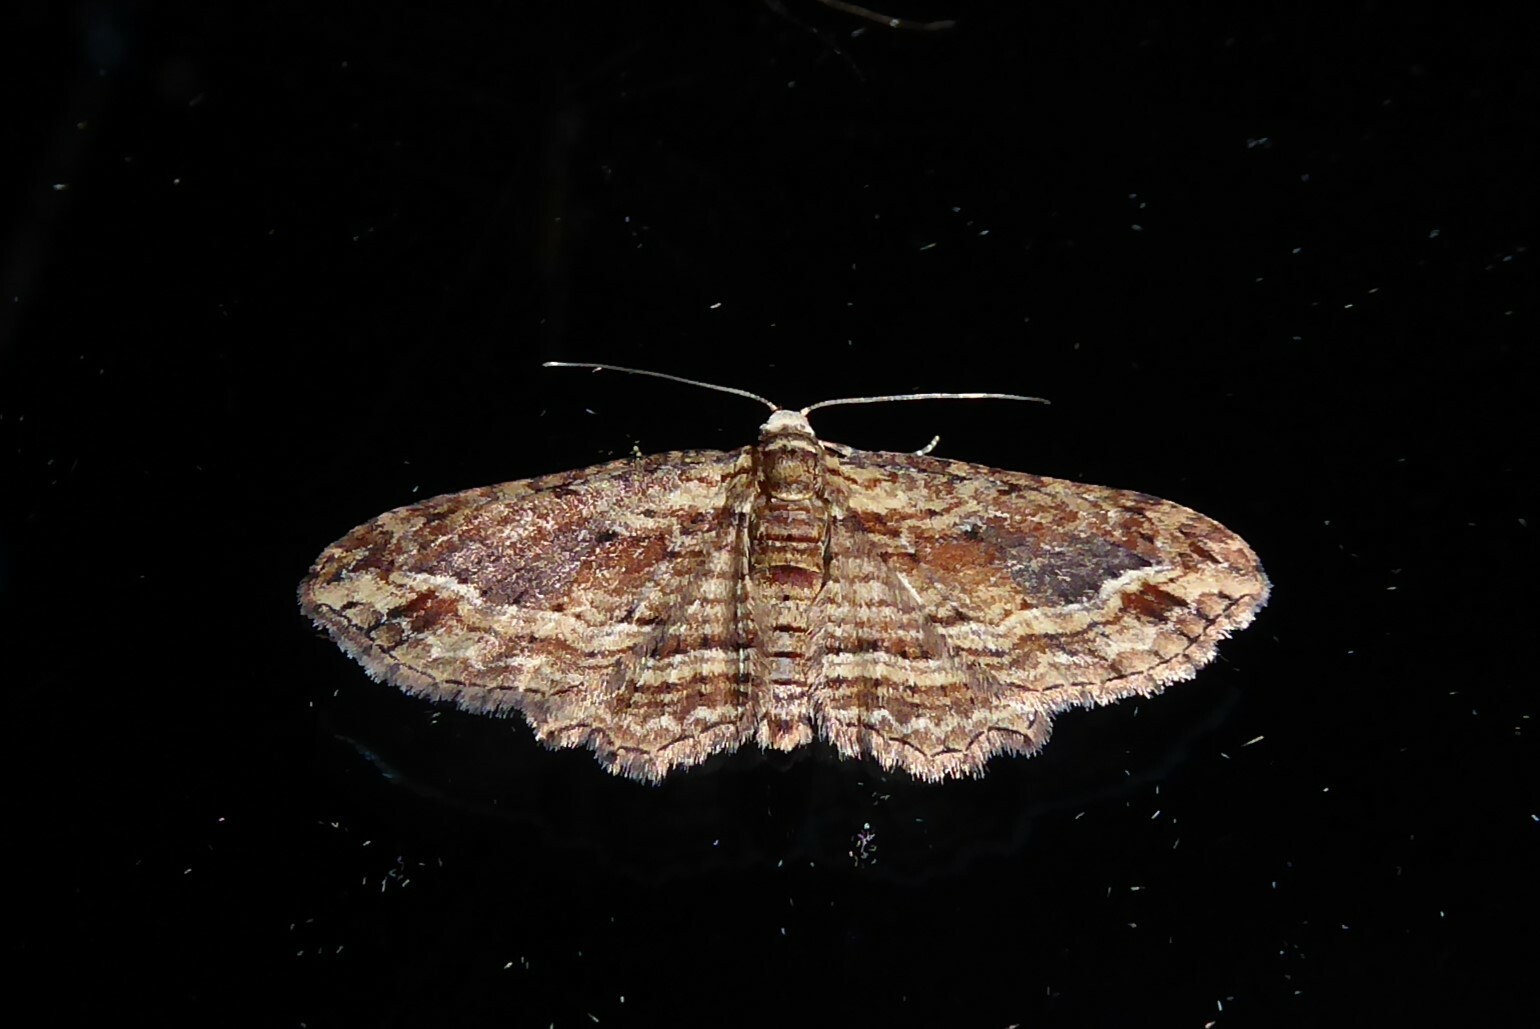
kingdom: Animalia
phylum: Arthropoda
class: Insecta
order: Lepidoptera
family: Geometridae
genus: Chloroclystis
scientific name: Chloroclystis filata
